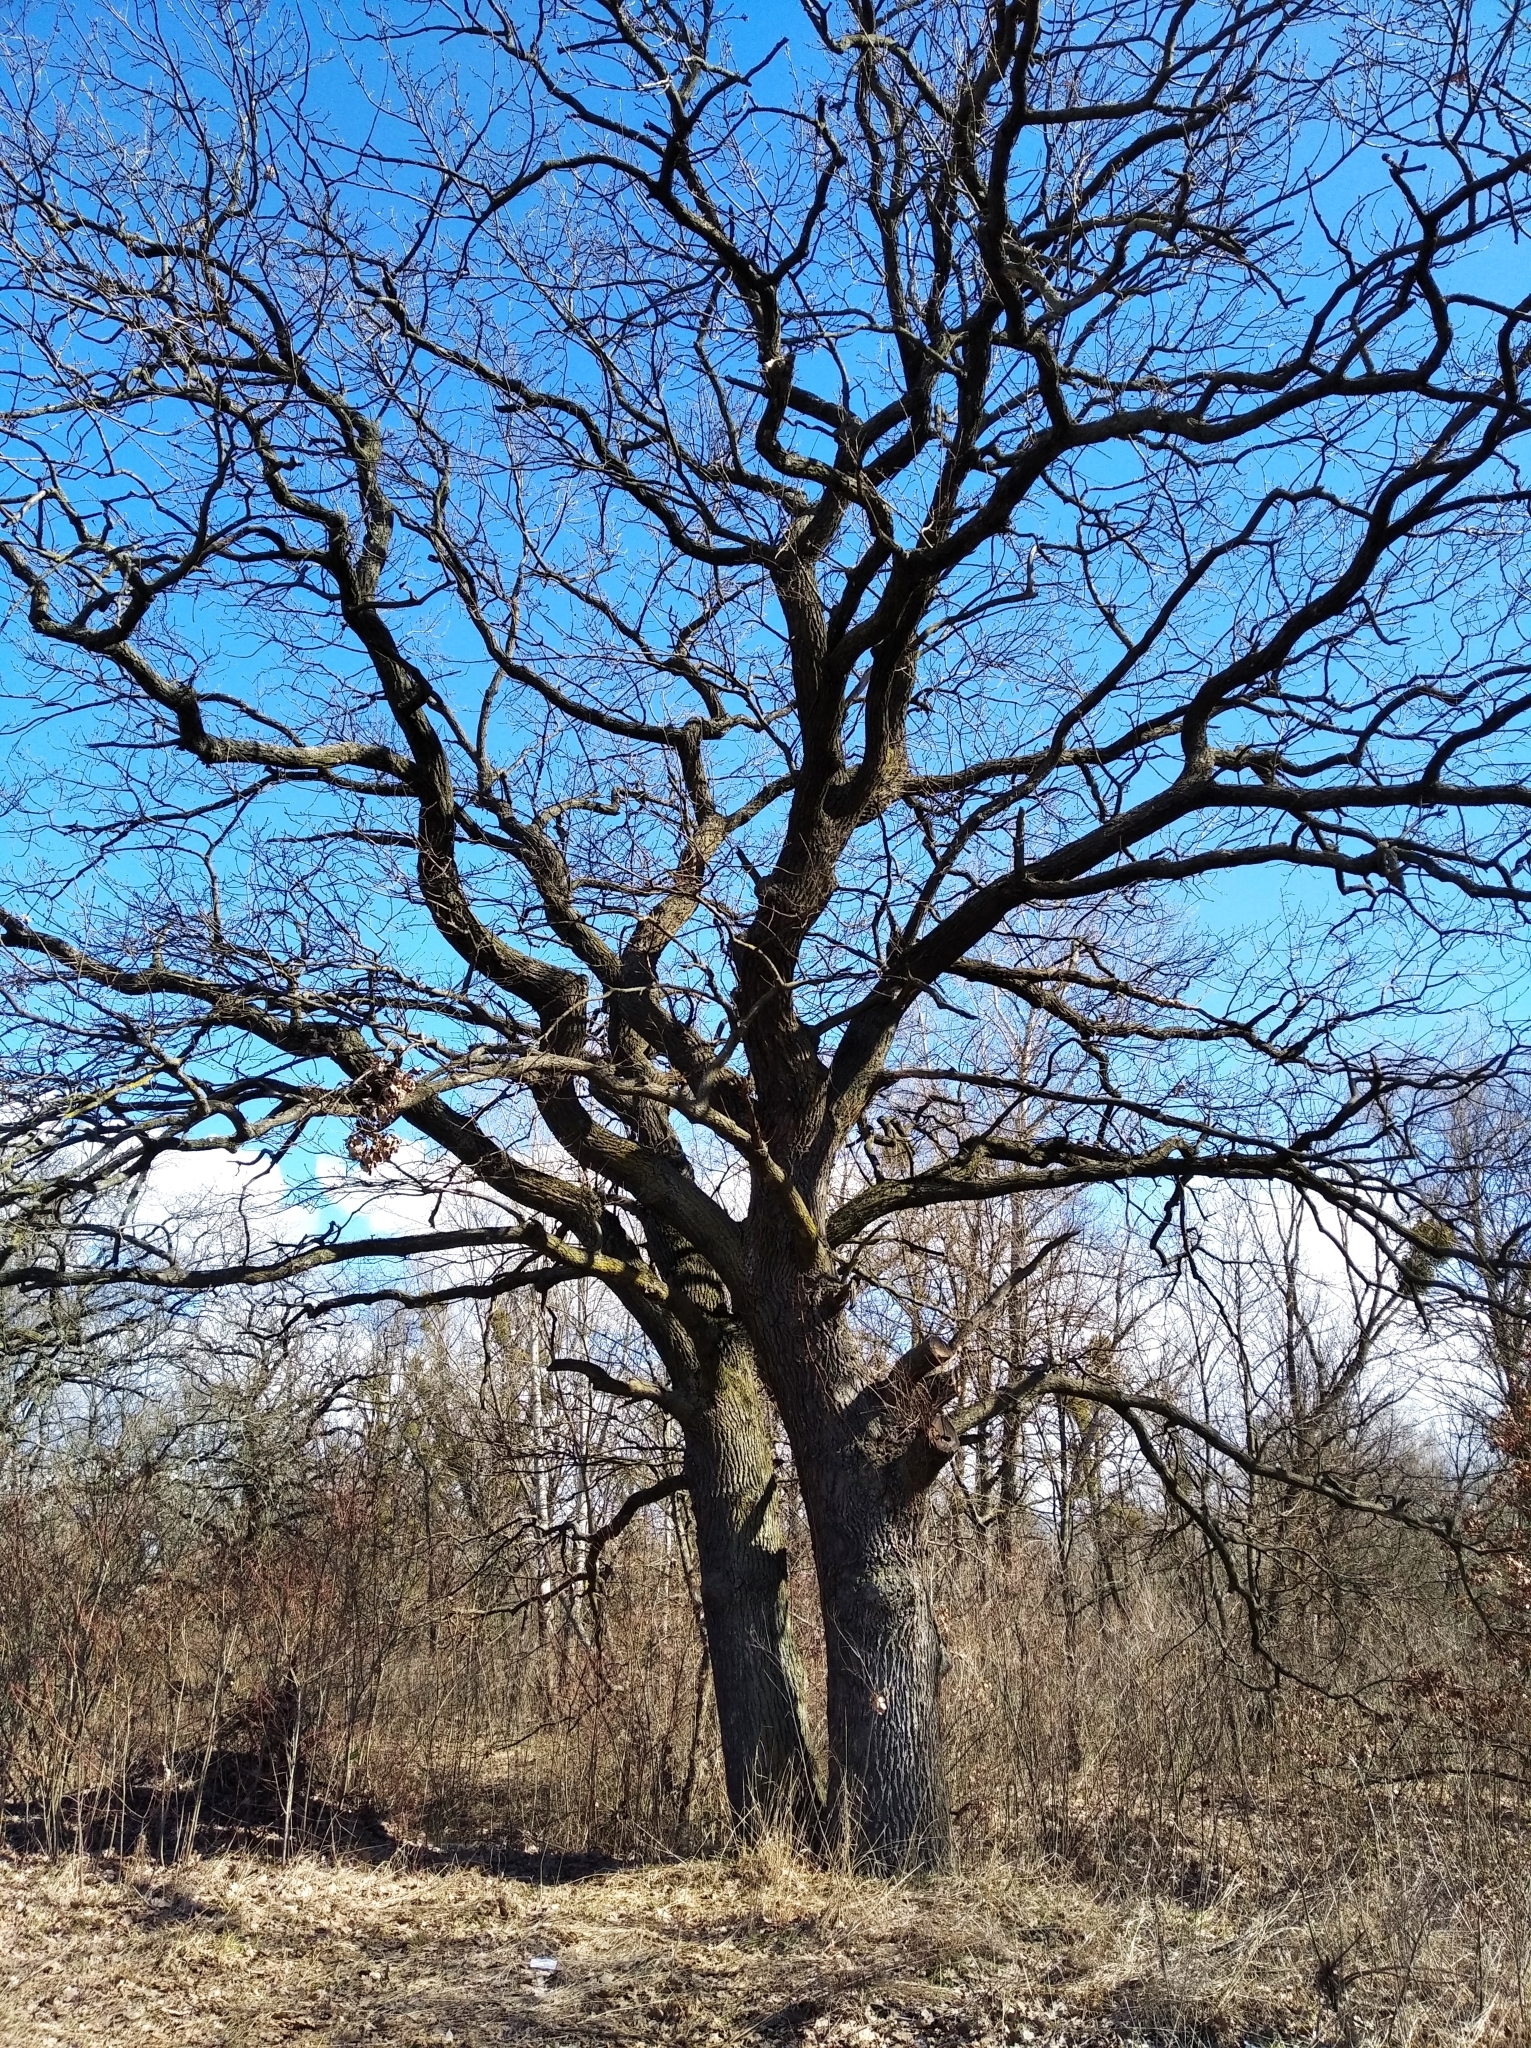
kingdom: Plantae
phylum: Tracheophyta
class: Magnoliopsida
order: Fagales
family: Fagaceae
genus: Quercus
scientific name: Quercus robur
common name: Pedunculate oak
